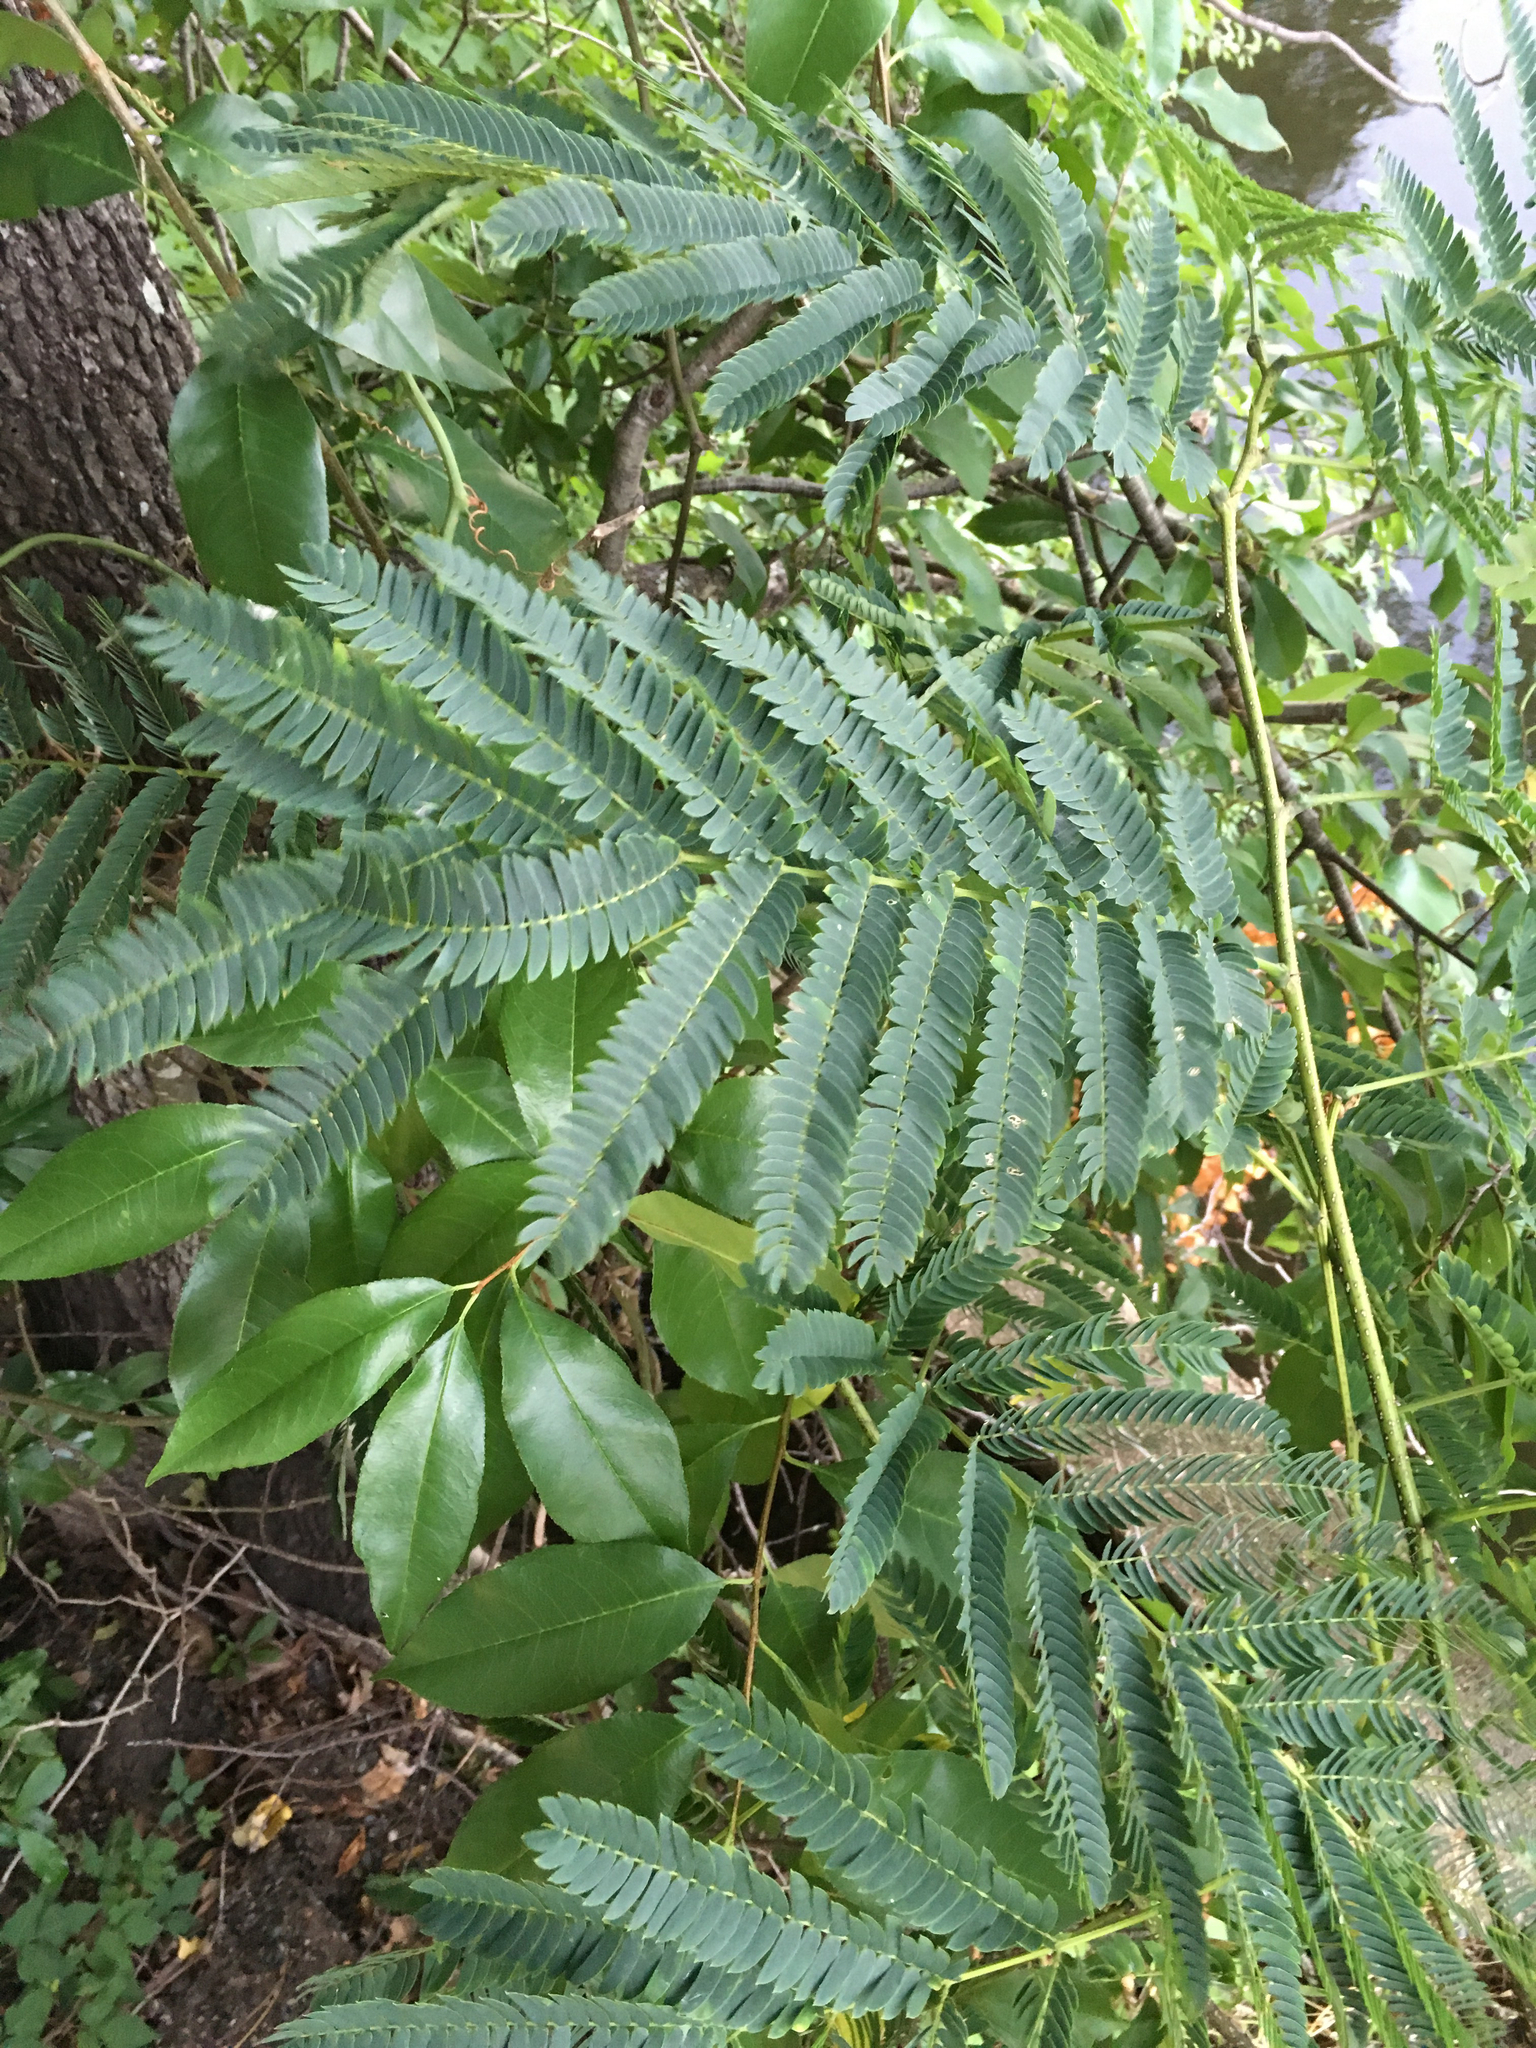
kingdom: Plantae
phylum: Tracheophyta
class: Magnoliopsida
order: Fabales
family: Fabaceae
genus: Albizia
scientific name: Albizia julibrissin
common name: Silktree
